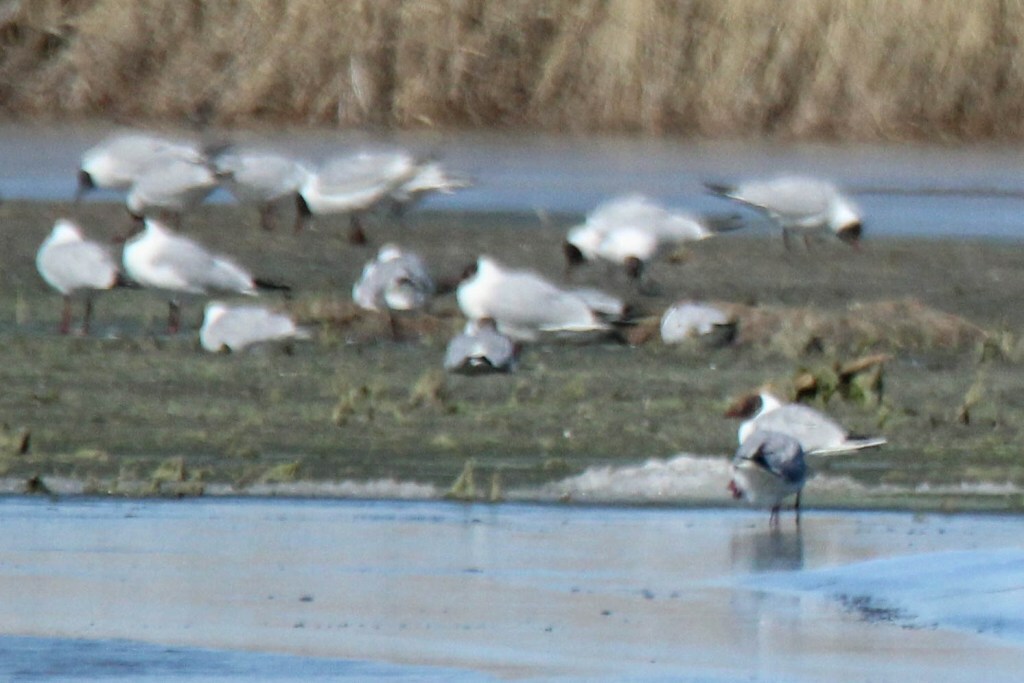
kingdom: Animalia
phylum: Chordata
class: Aves
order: Charadriiformes
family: Laridae
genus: Chroicocephalus
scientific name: Chroicocephalus ridibundus
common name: Black-headed gull
